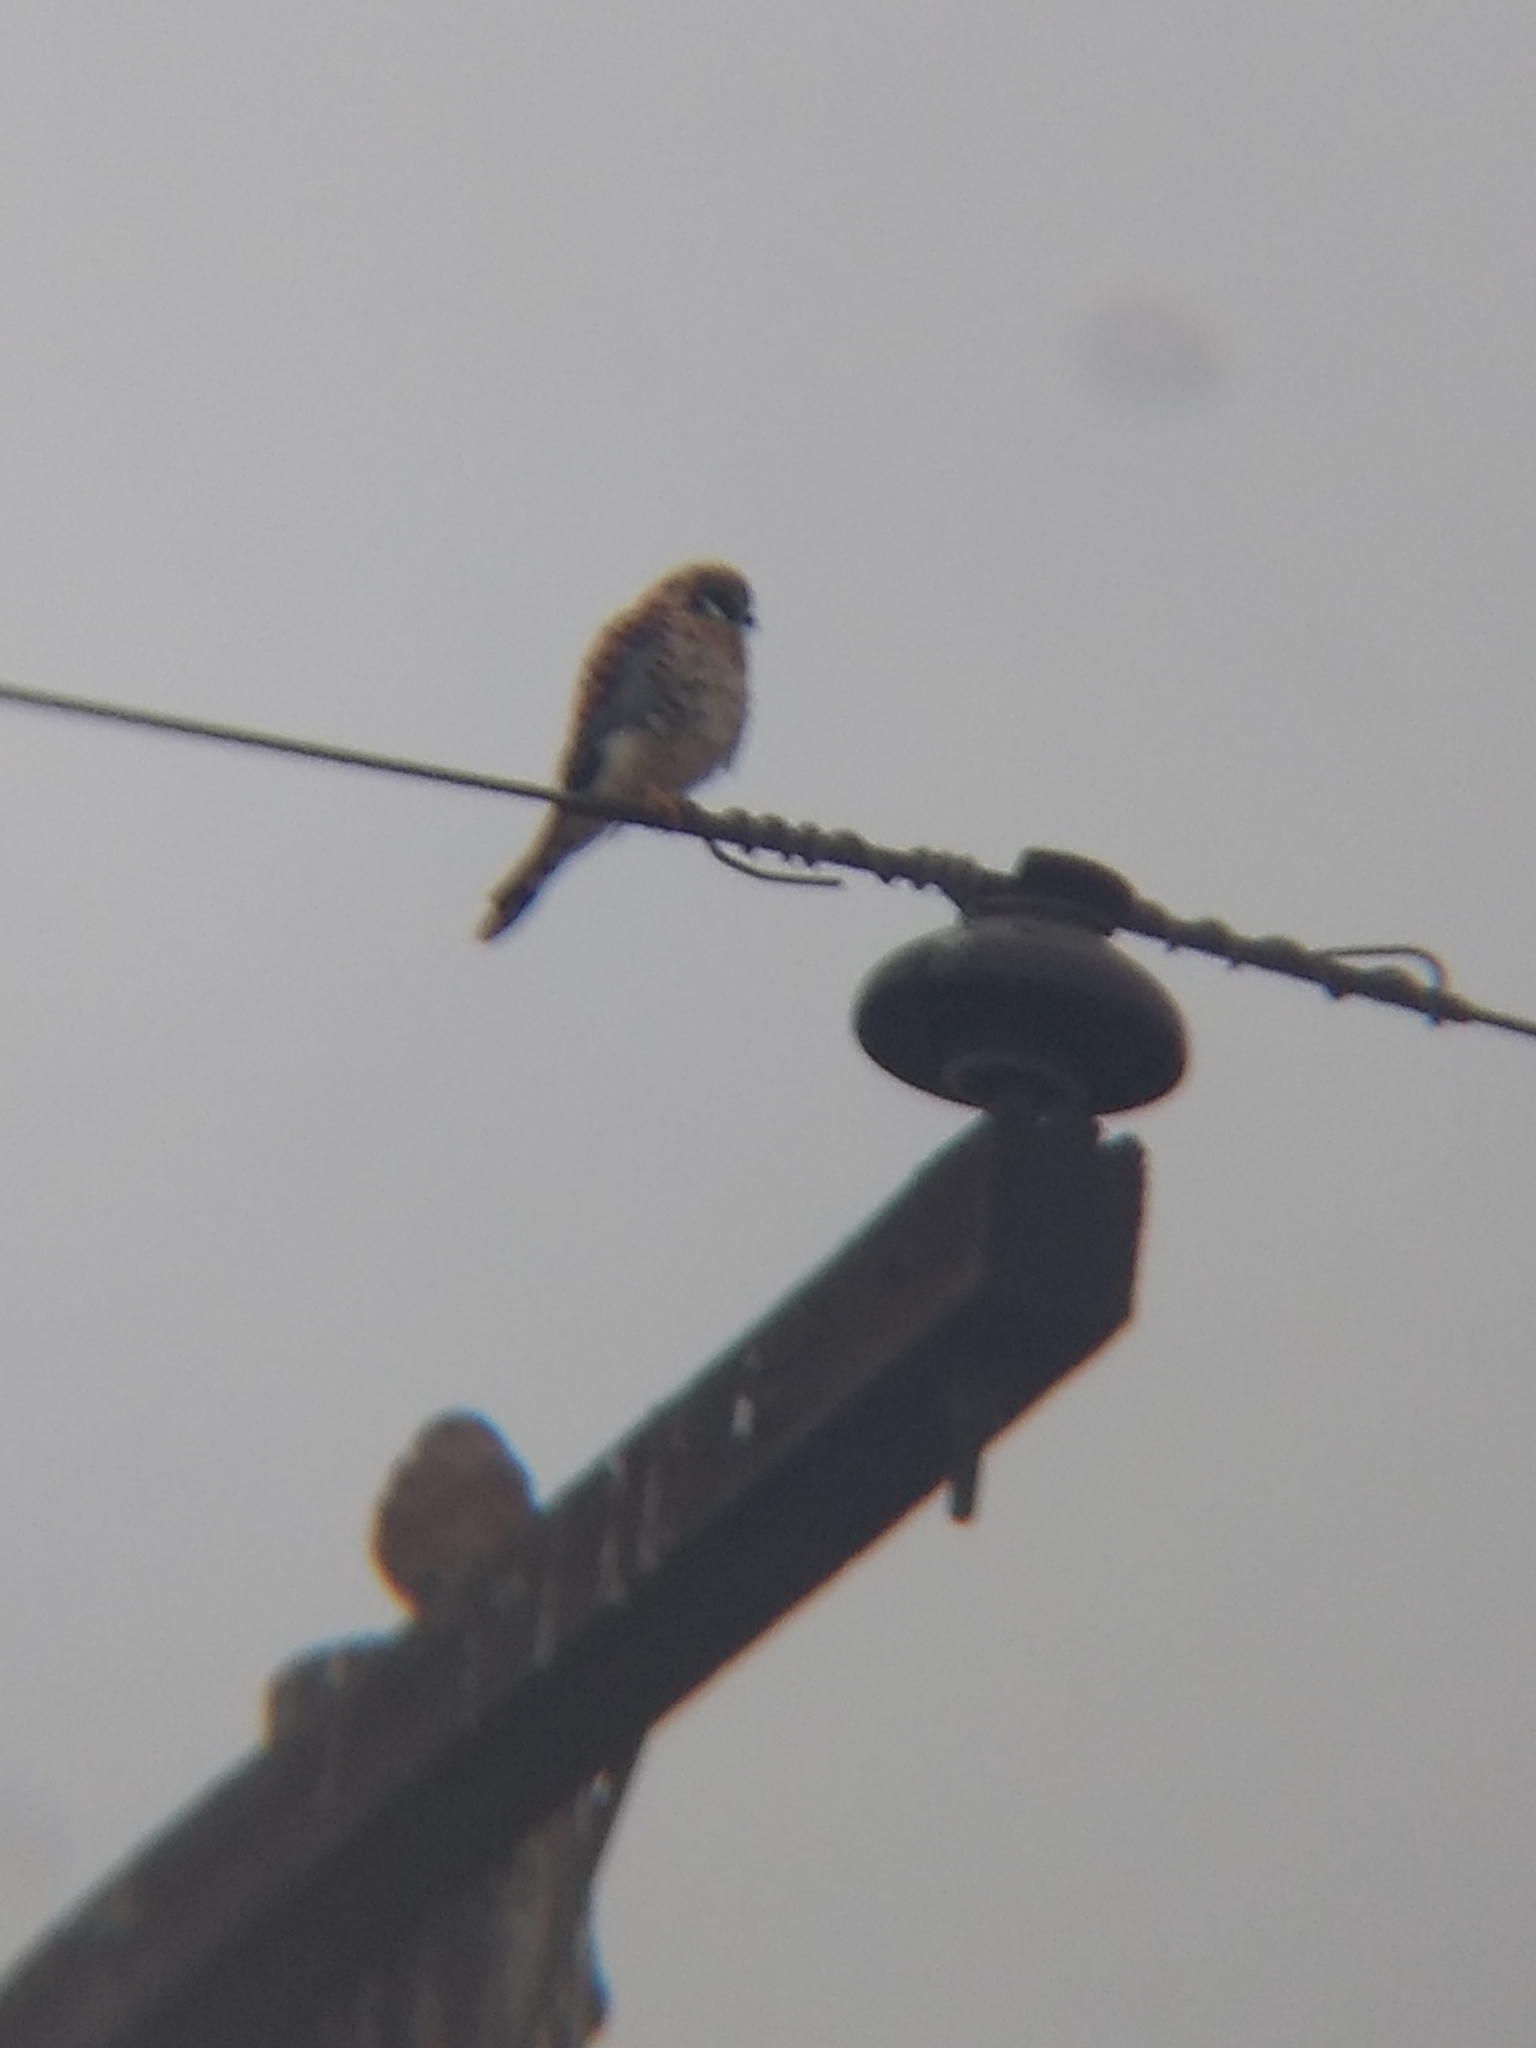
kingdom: Animalia
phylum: Chordata
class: Aves
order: Falconiformes
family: Falconidae
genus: Falco
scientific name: Falco sparverius
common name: American kestrel
